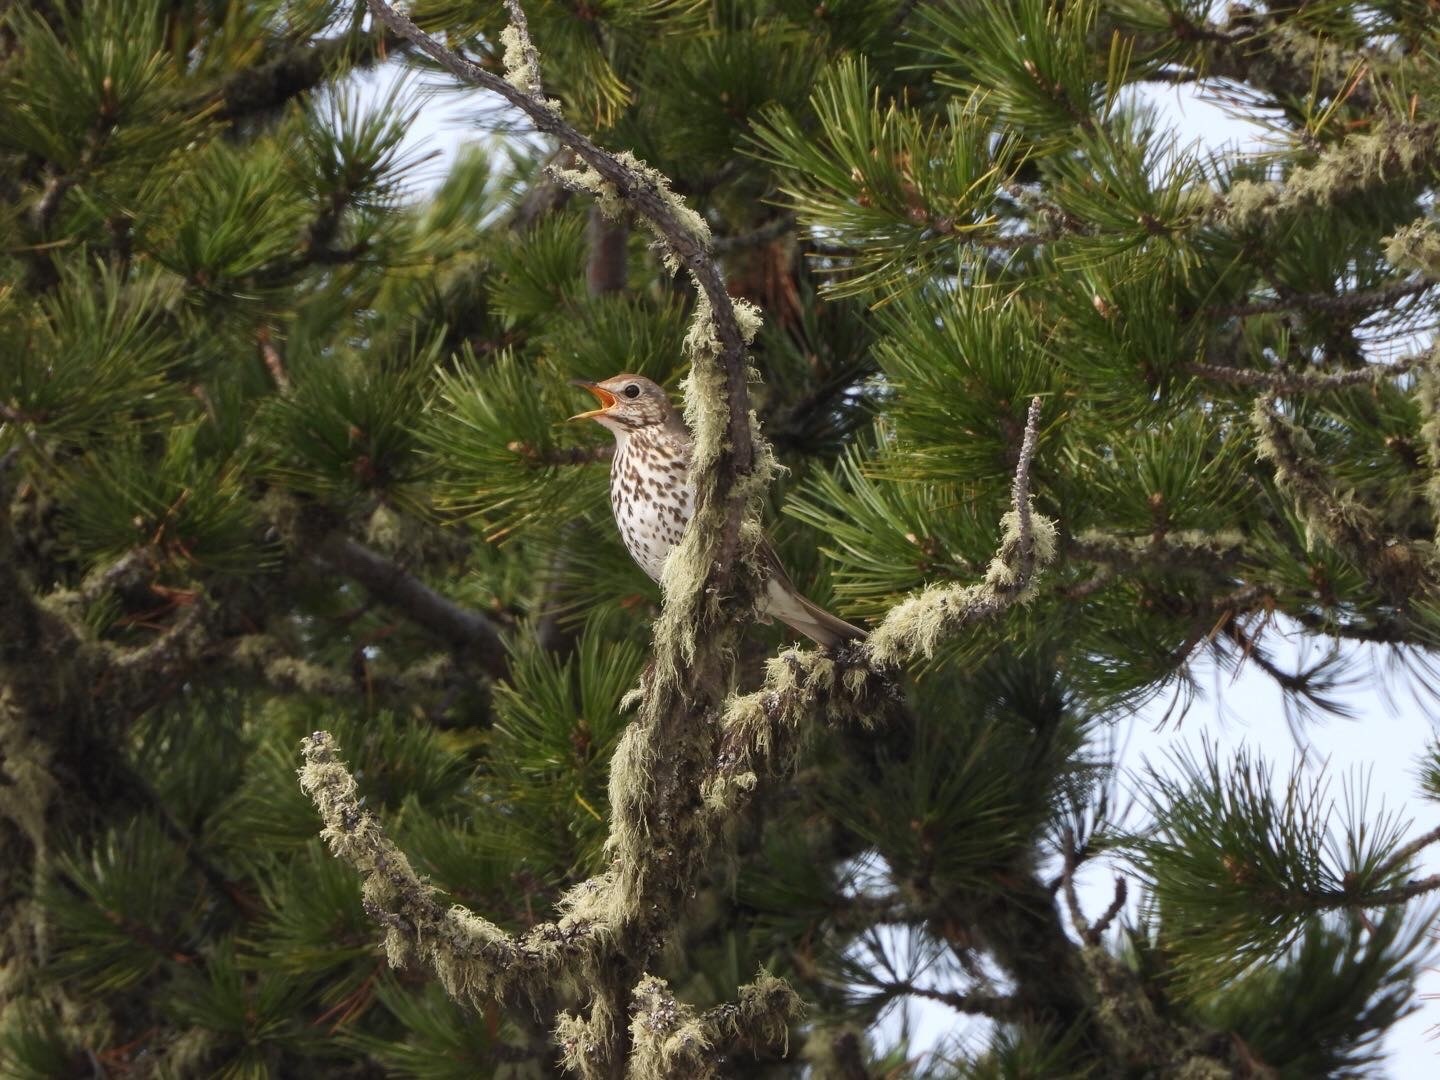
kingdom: Animalia
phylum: Chordata
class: Aves
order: Passeriformes
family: Turdidae
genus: Turdus
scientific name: Turdus philomelos
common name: Song thrush
